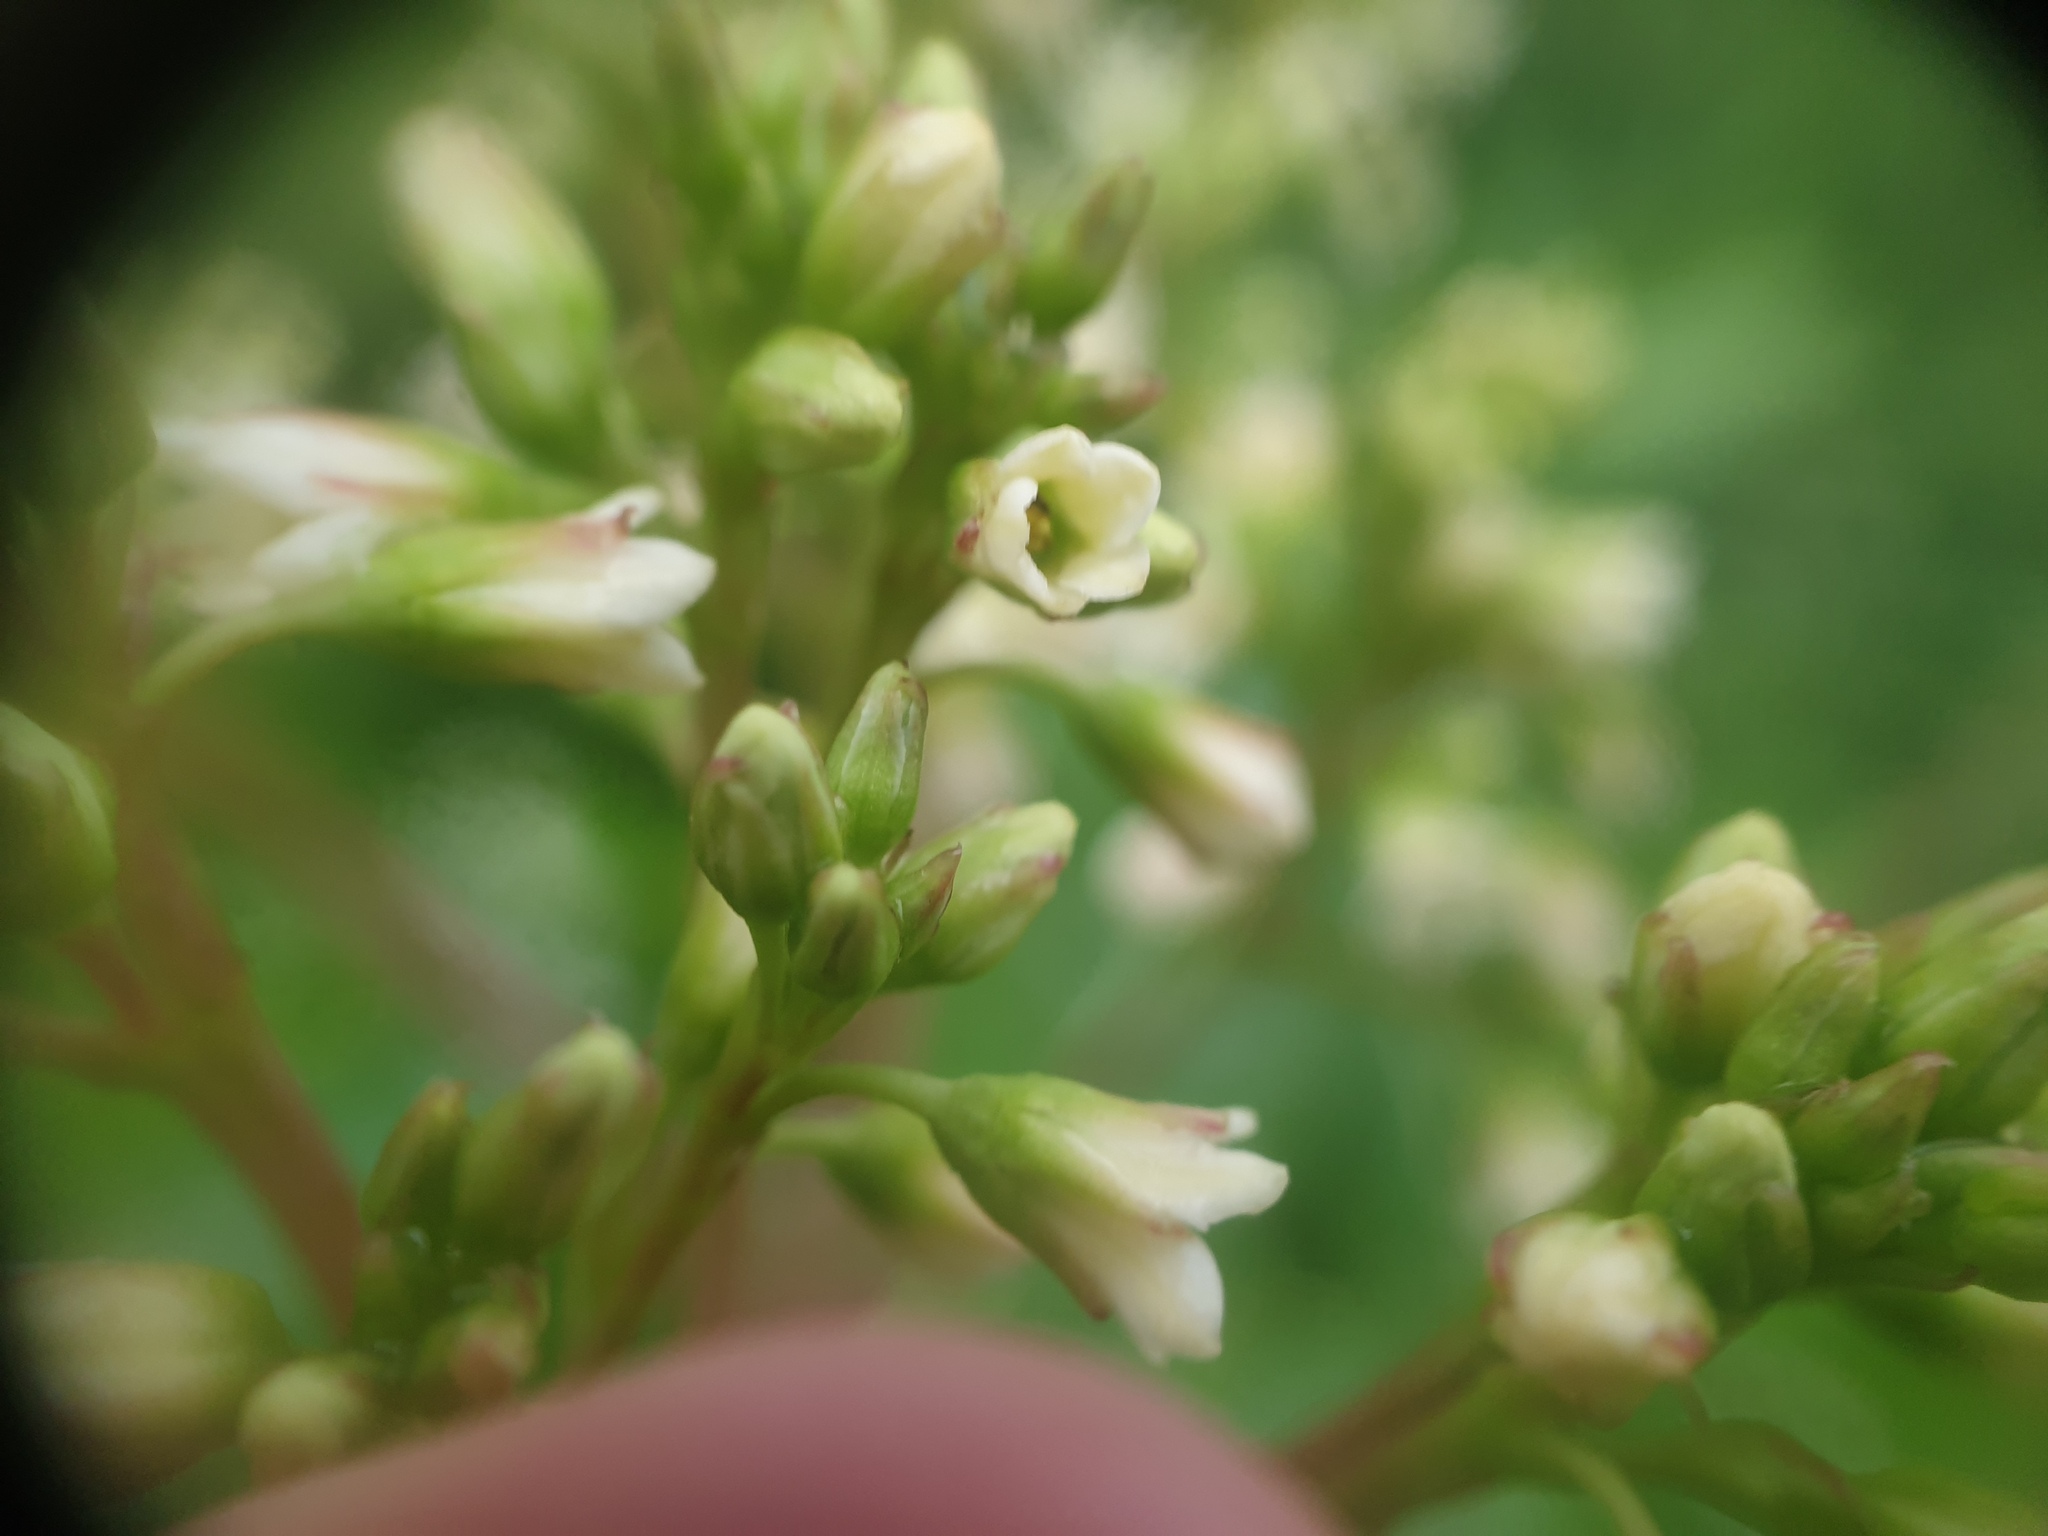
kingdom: Plantae
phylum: Tracheophyta
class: Magnoliopsida
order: Gentianales
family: Apocynaceae
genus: Apocynum
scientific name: Apocynum cannabinum
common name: Hemp dogbane
